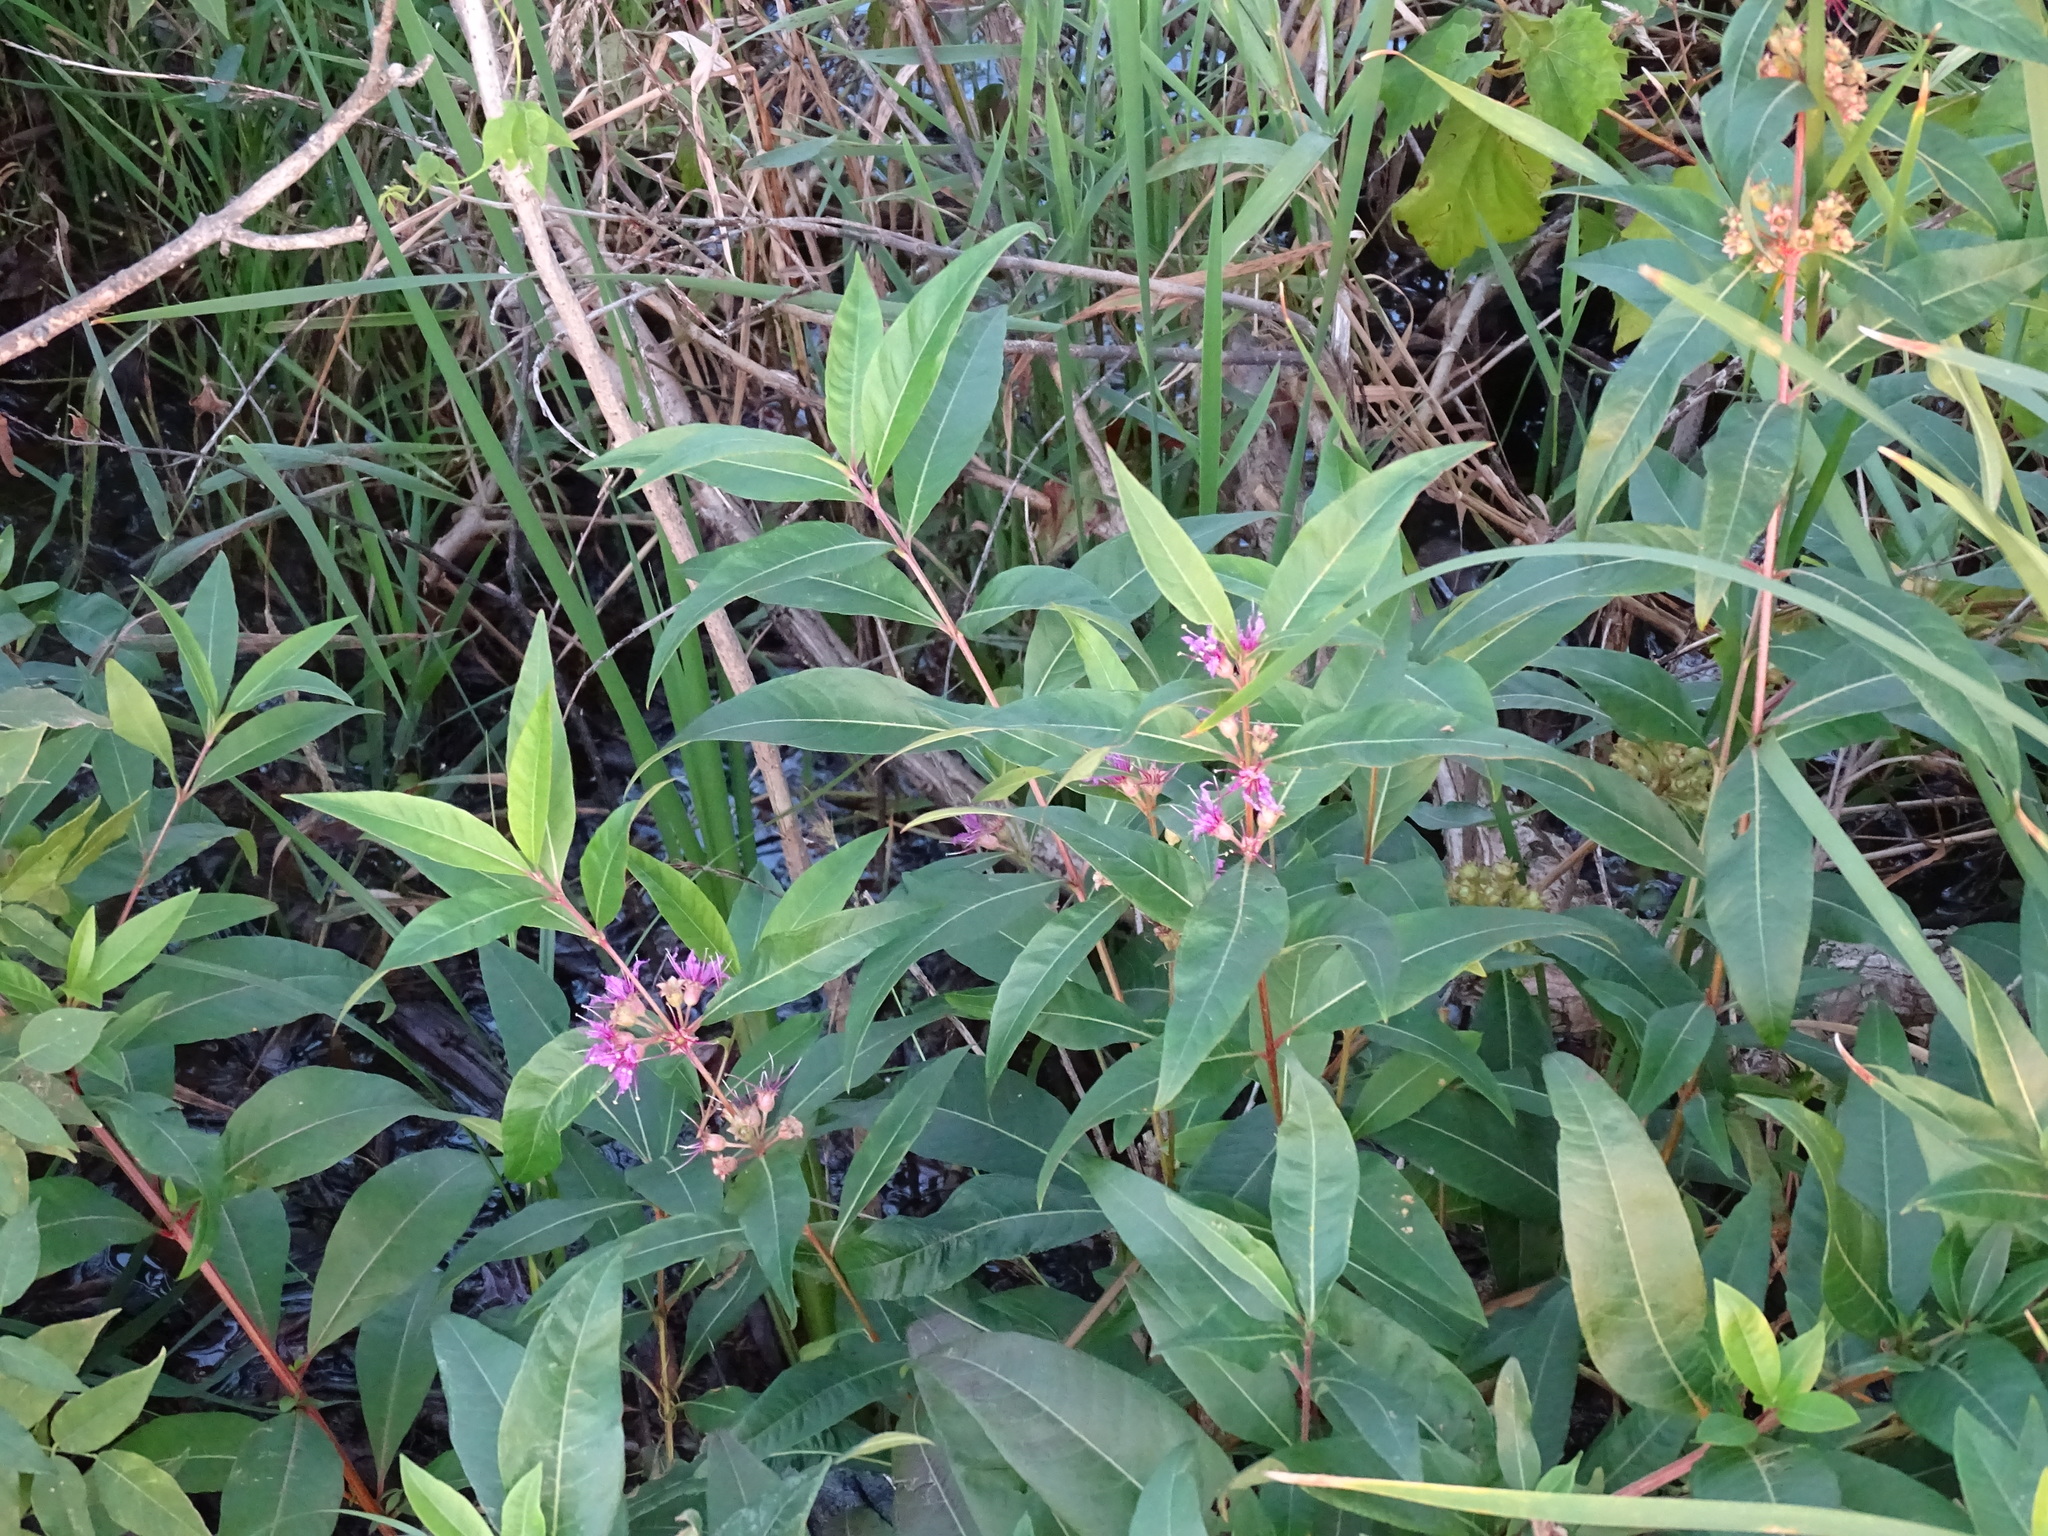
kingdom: Plantae
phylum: Tracheophyta
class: Magnoliopsida
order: Myrtales
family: Lythraceae
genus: Decodon
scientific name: Decodon verticillatus
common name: Hairy swamp loosestrife
